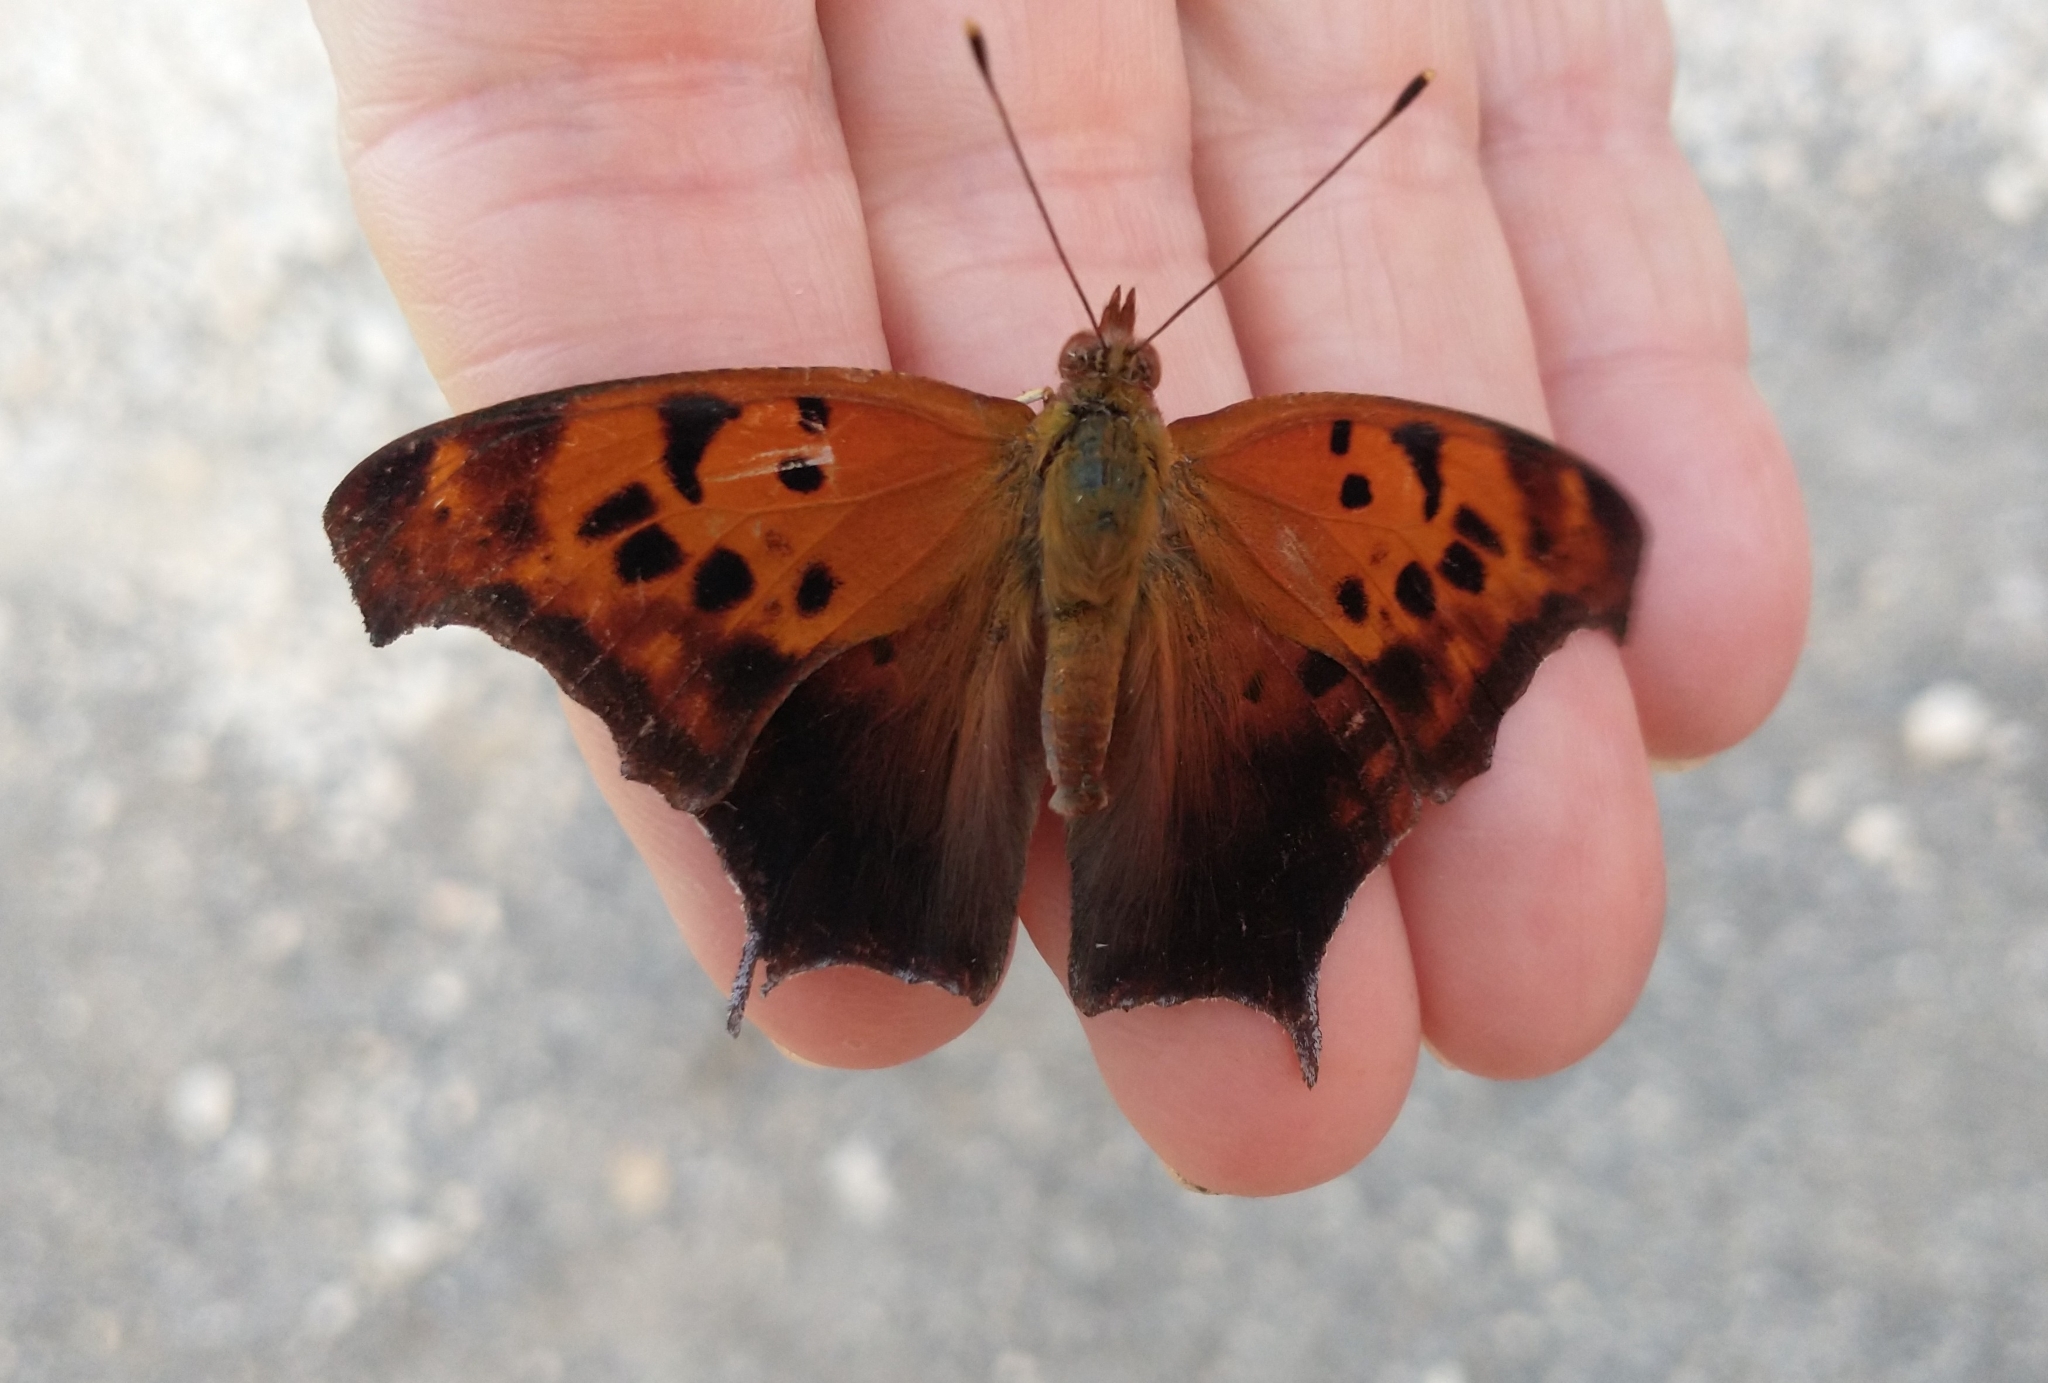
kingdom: Animalia
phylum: Arthropoda
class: Insecta
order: Lepidoptera
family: Nymphalidae
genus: Polygonia
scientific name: Polygonia interrogationis
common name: Question mark
